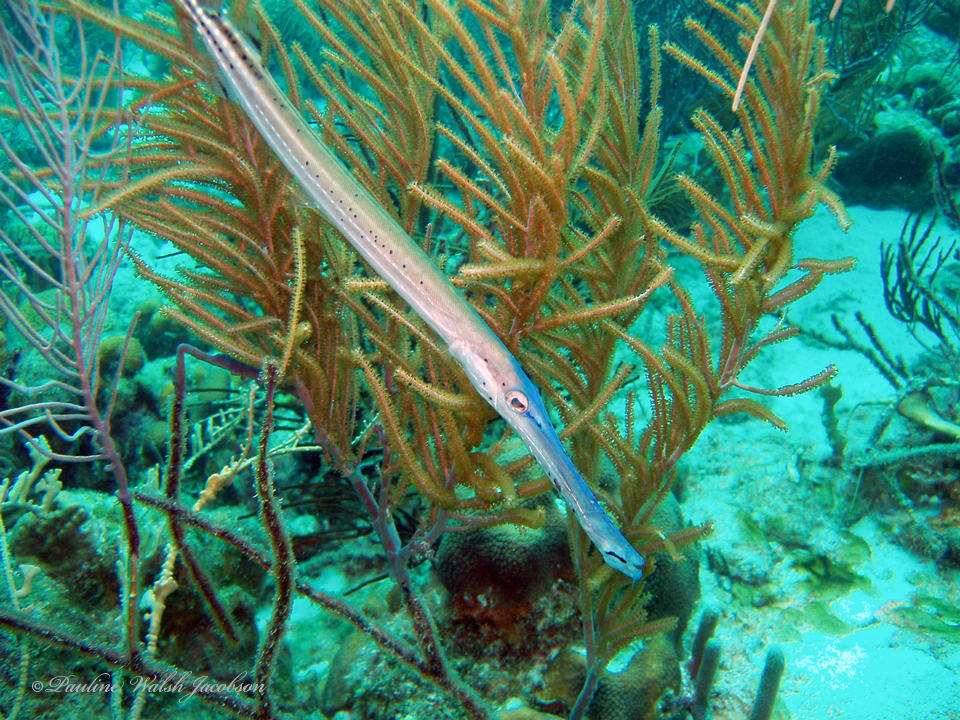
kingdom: Animalia
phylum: Chordata
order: Syngnathiformes
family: Aulostomidae
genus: Aulostomus
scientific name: Aulostomus maculatus
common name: West atlantic trumpetfish
